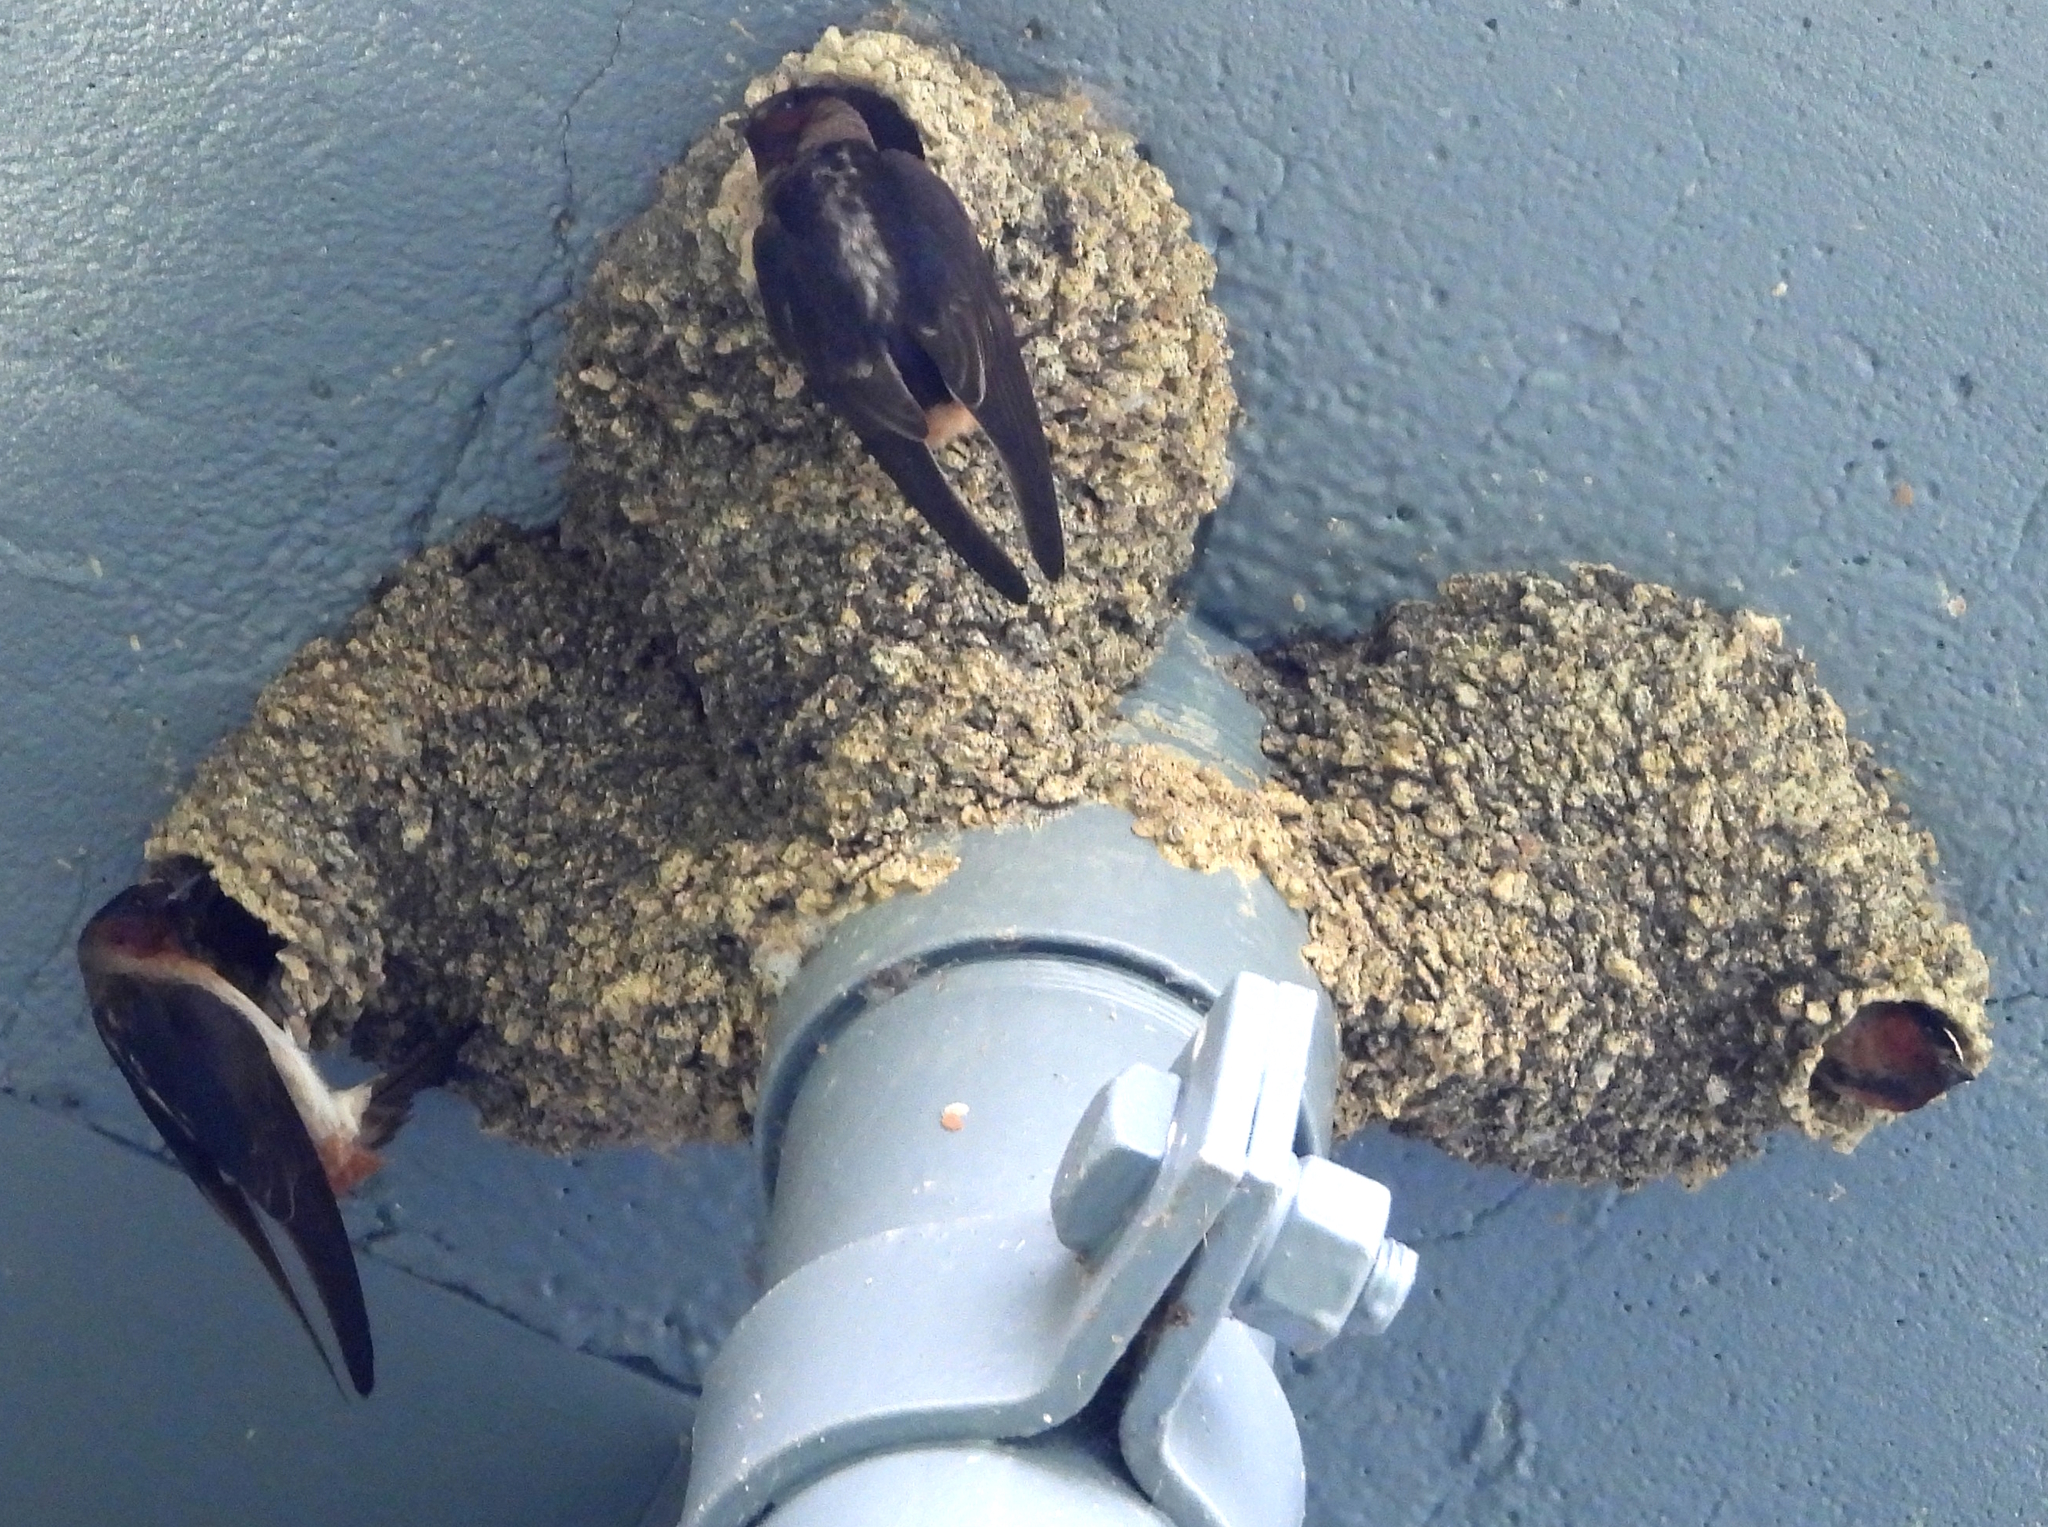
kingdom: Animalia
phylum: Chordata
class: Aves
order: Passeriformes
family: Hirundinidae
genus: Petrochelidon
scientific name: Petrochelidon pyrrhonota
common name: American cliff swallow
